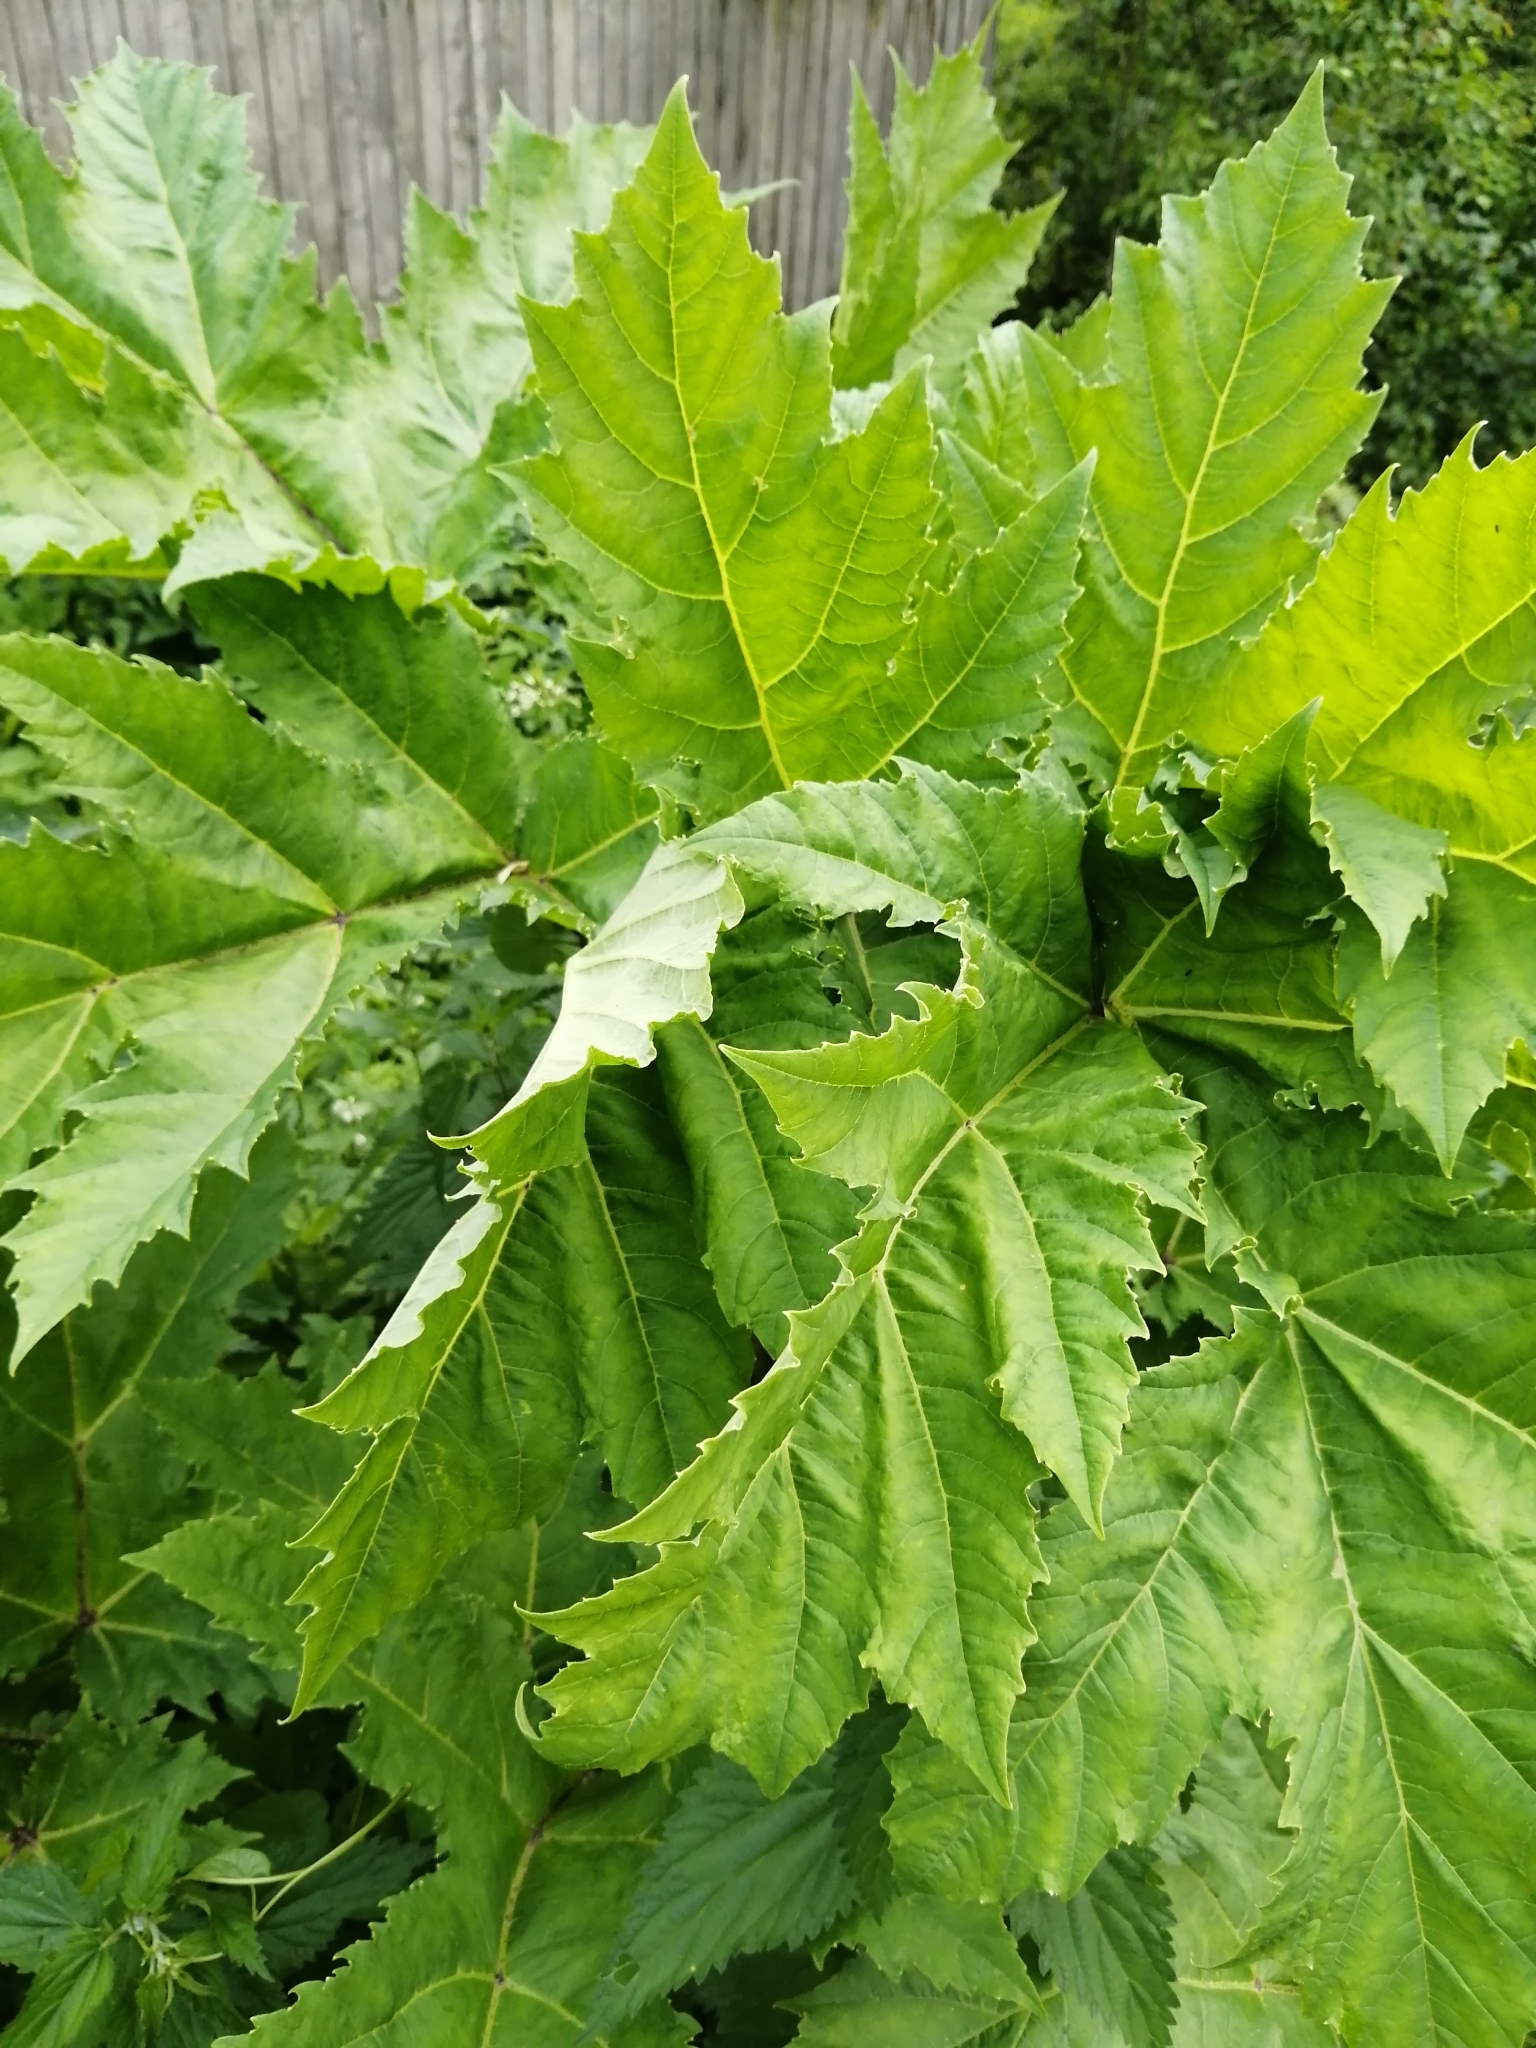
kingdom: Plantae
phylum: Tracheophyta
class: Magnoliopsida
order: Apiales
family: Apiaceae
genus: Heracleum
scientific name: Heracleum sosnowskyi
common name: Sosnowsky's hogweed
